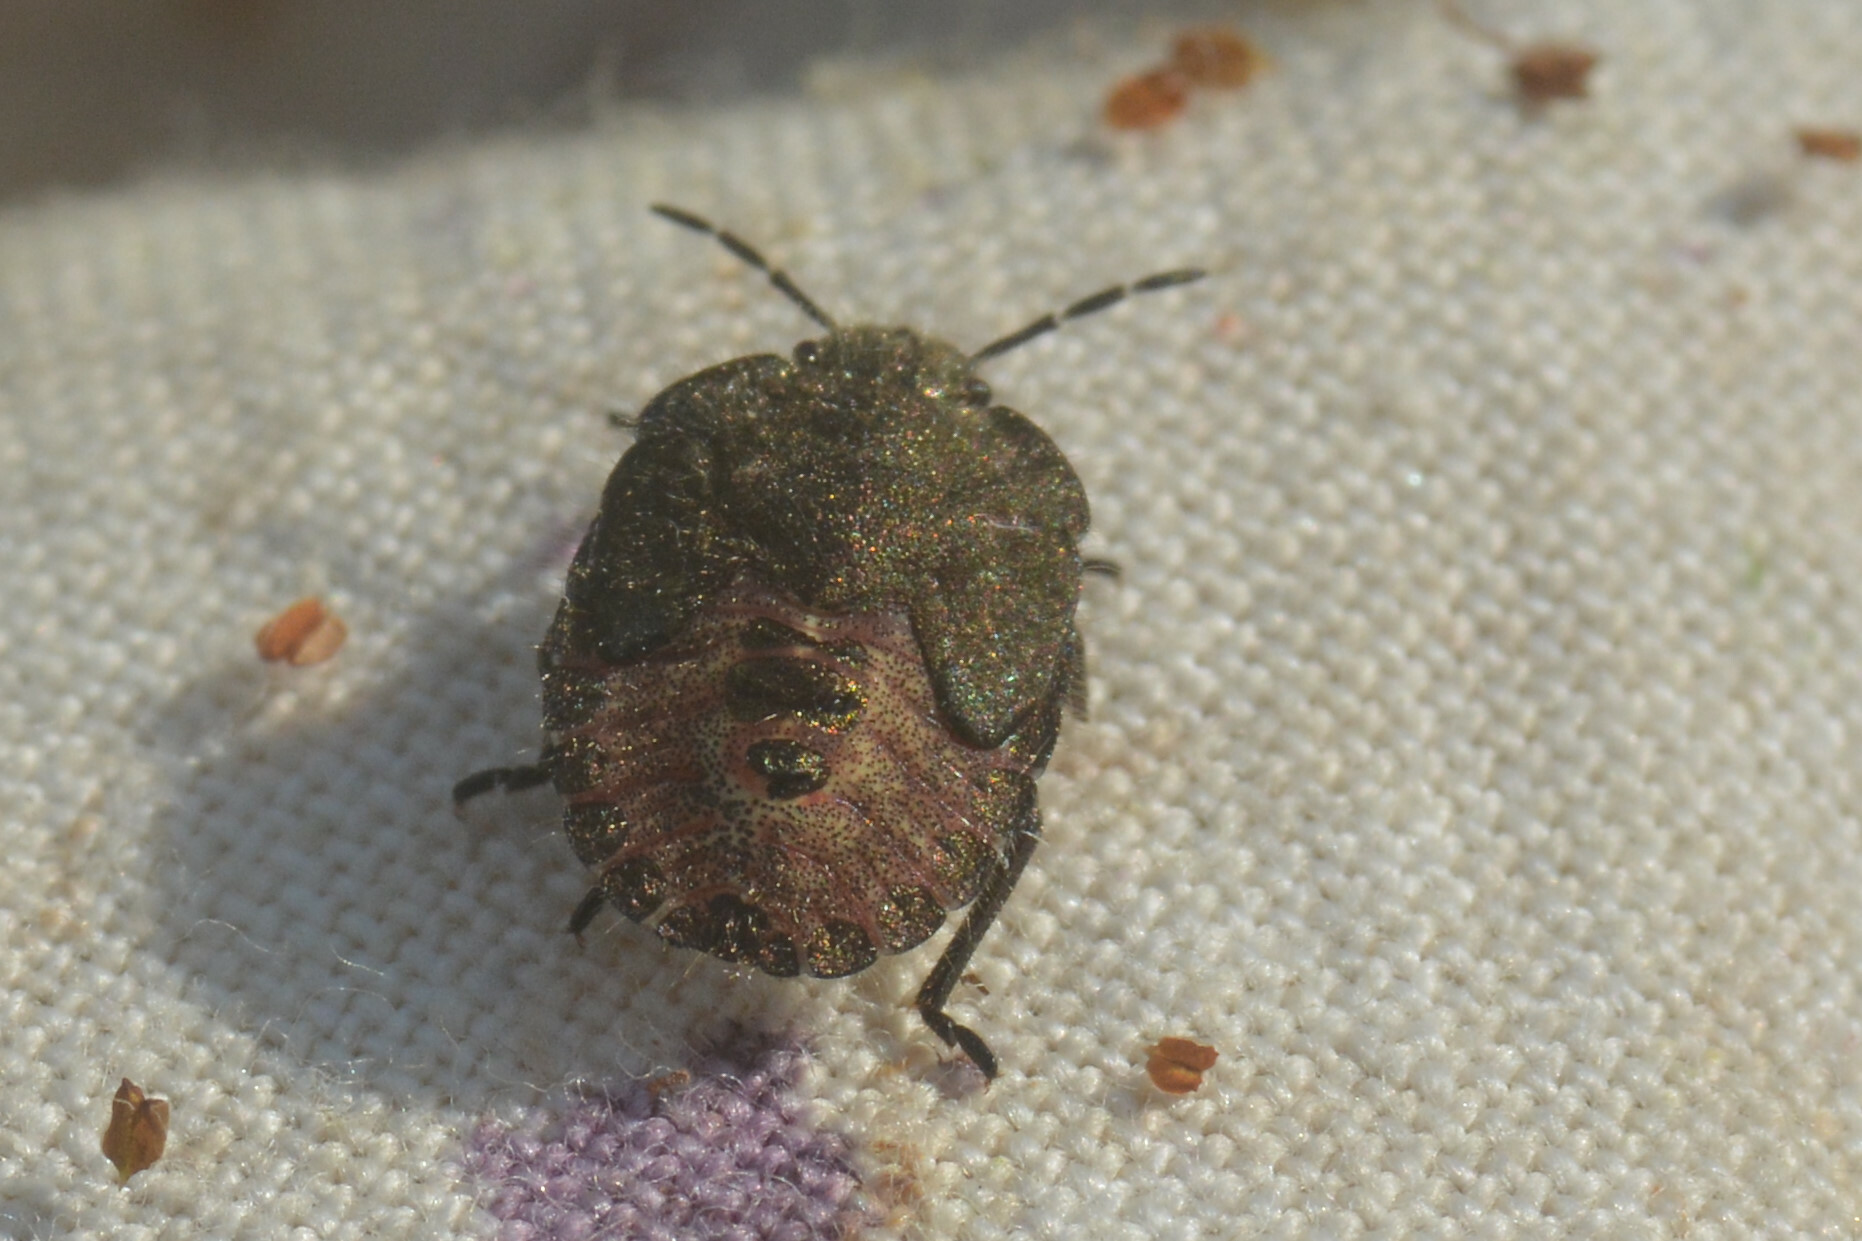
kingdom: Animalia
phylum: Arthropoda
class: Insecta
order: Hemiptera
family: Pentatomidae
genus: Dolycoris
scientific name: Dolycoris baccarum
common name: Sloe bug
